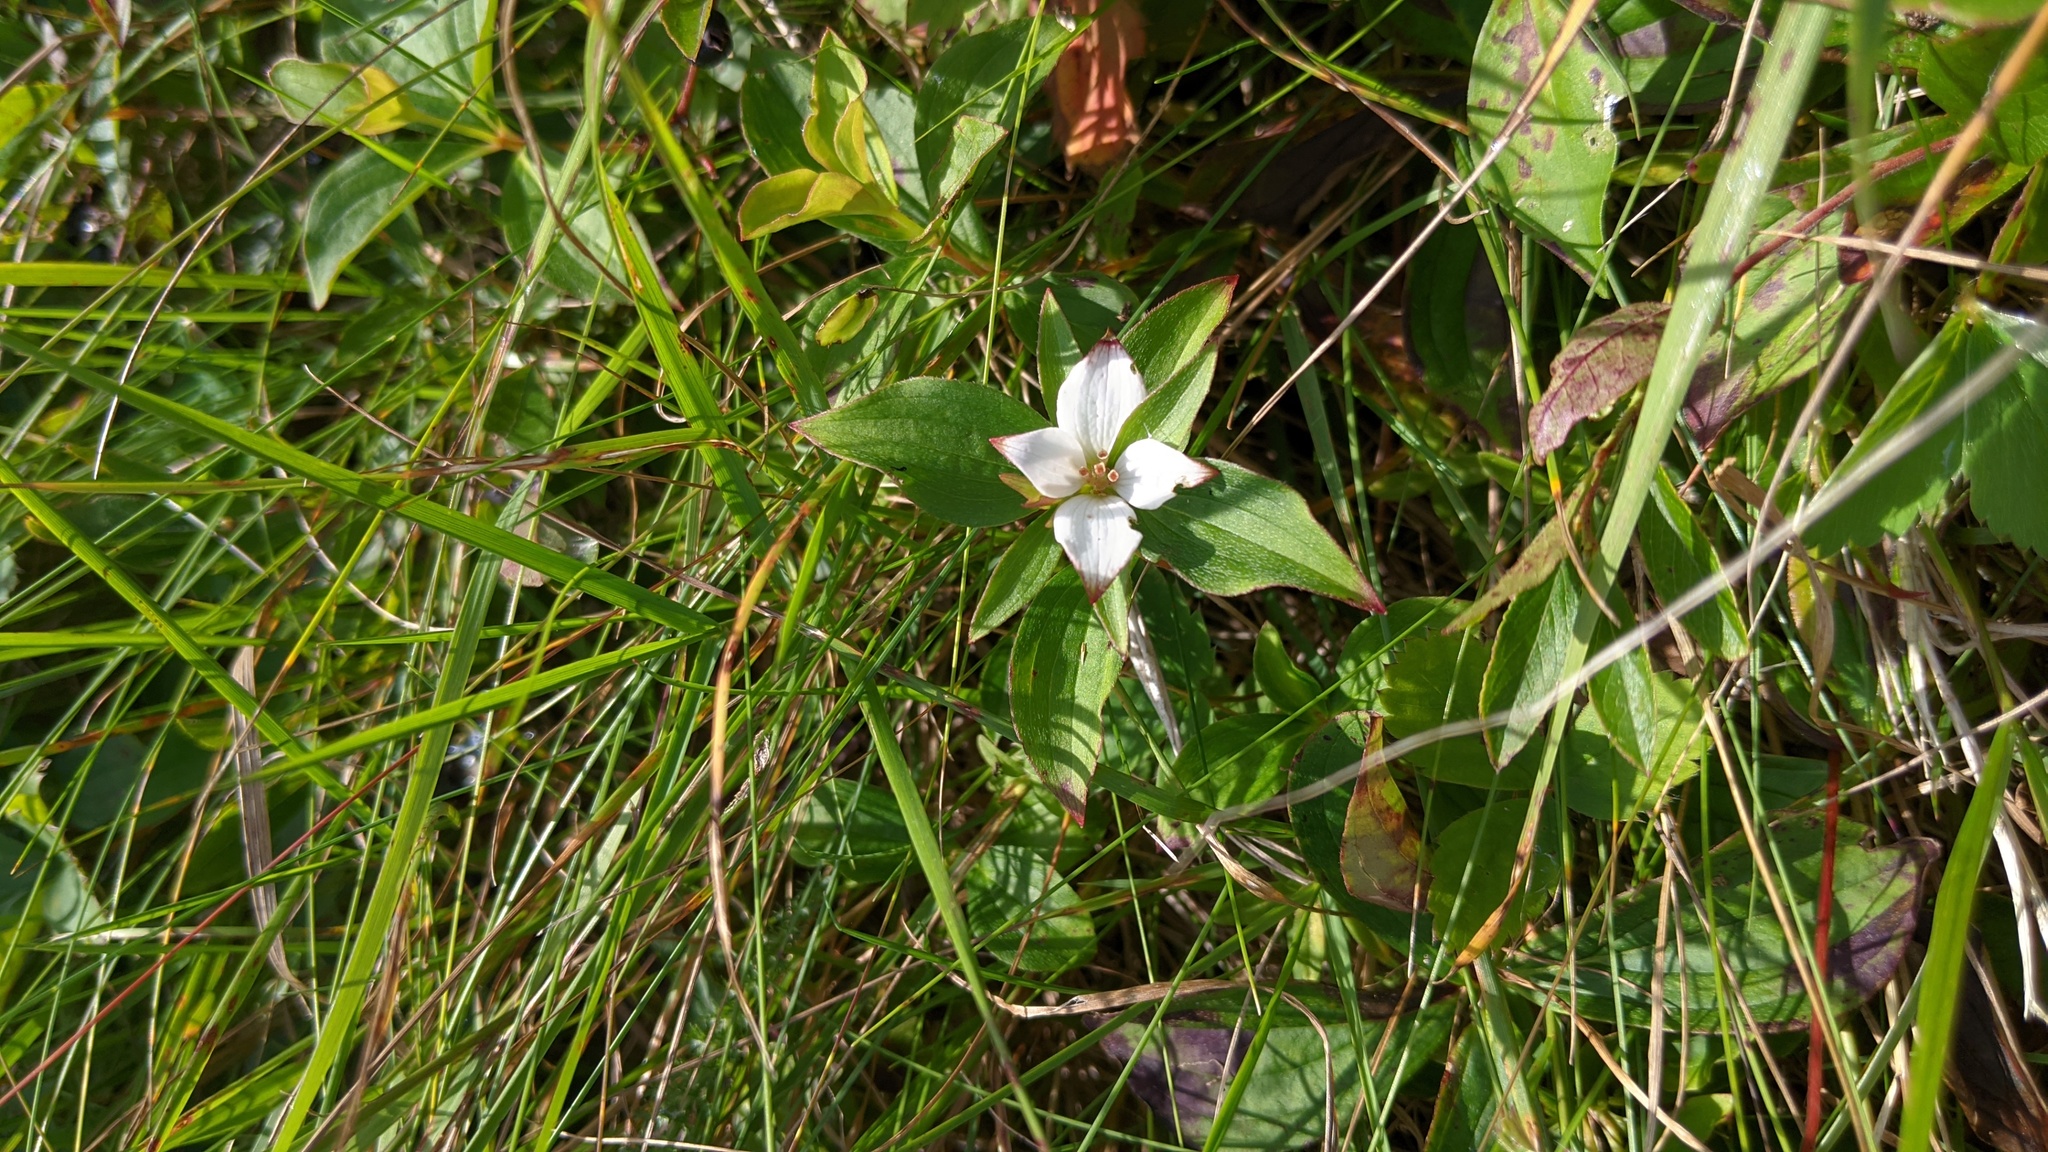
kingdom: Plantae
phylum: Tracheophyta
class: Magnoliopsida
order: Cornales
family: Cornaceae
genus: Cornus
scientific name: Cornus canadensis
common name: Creeping dogwood
